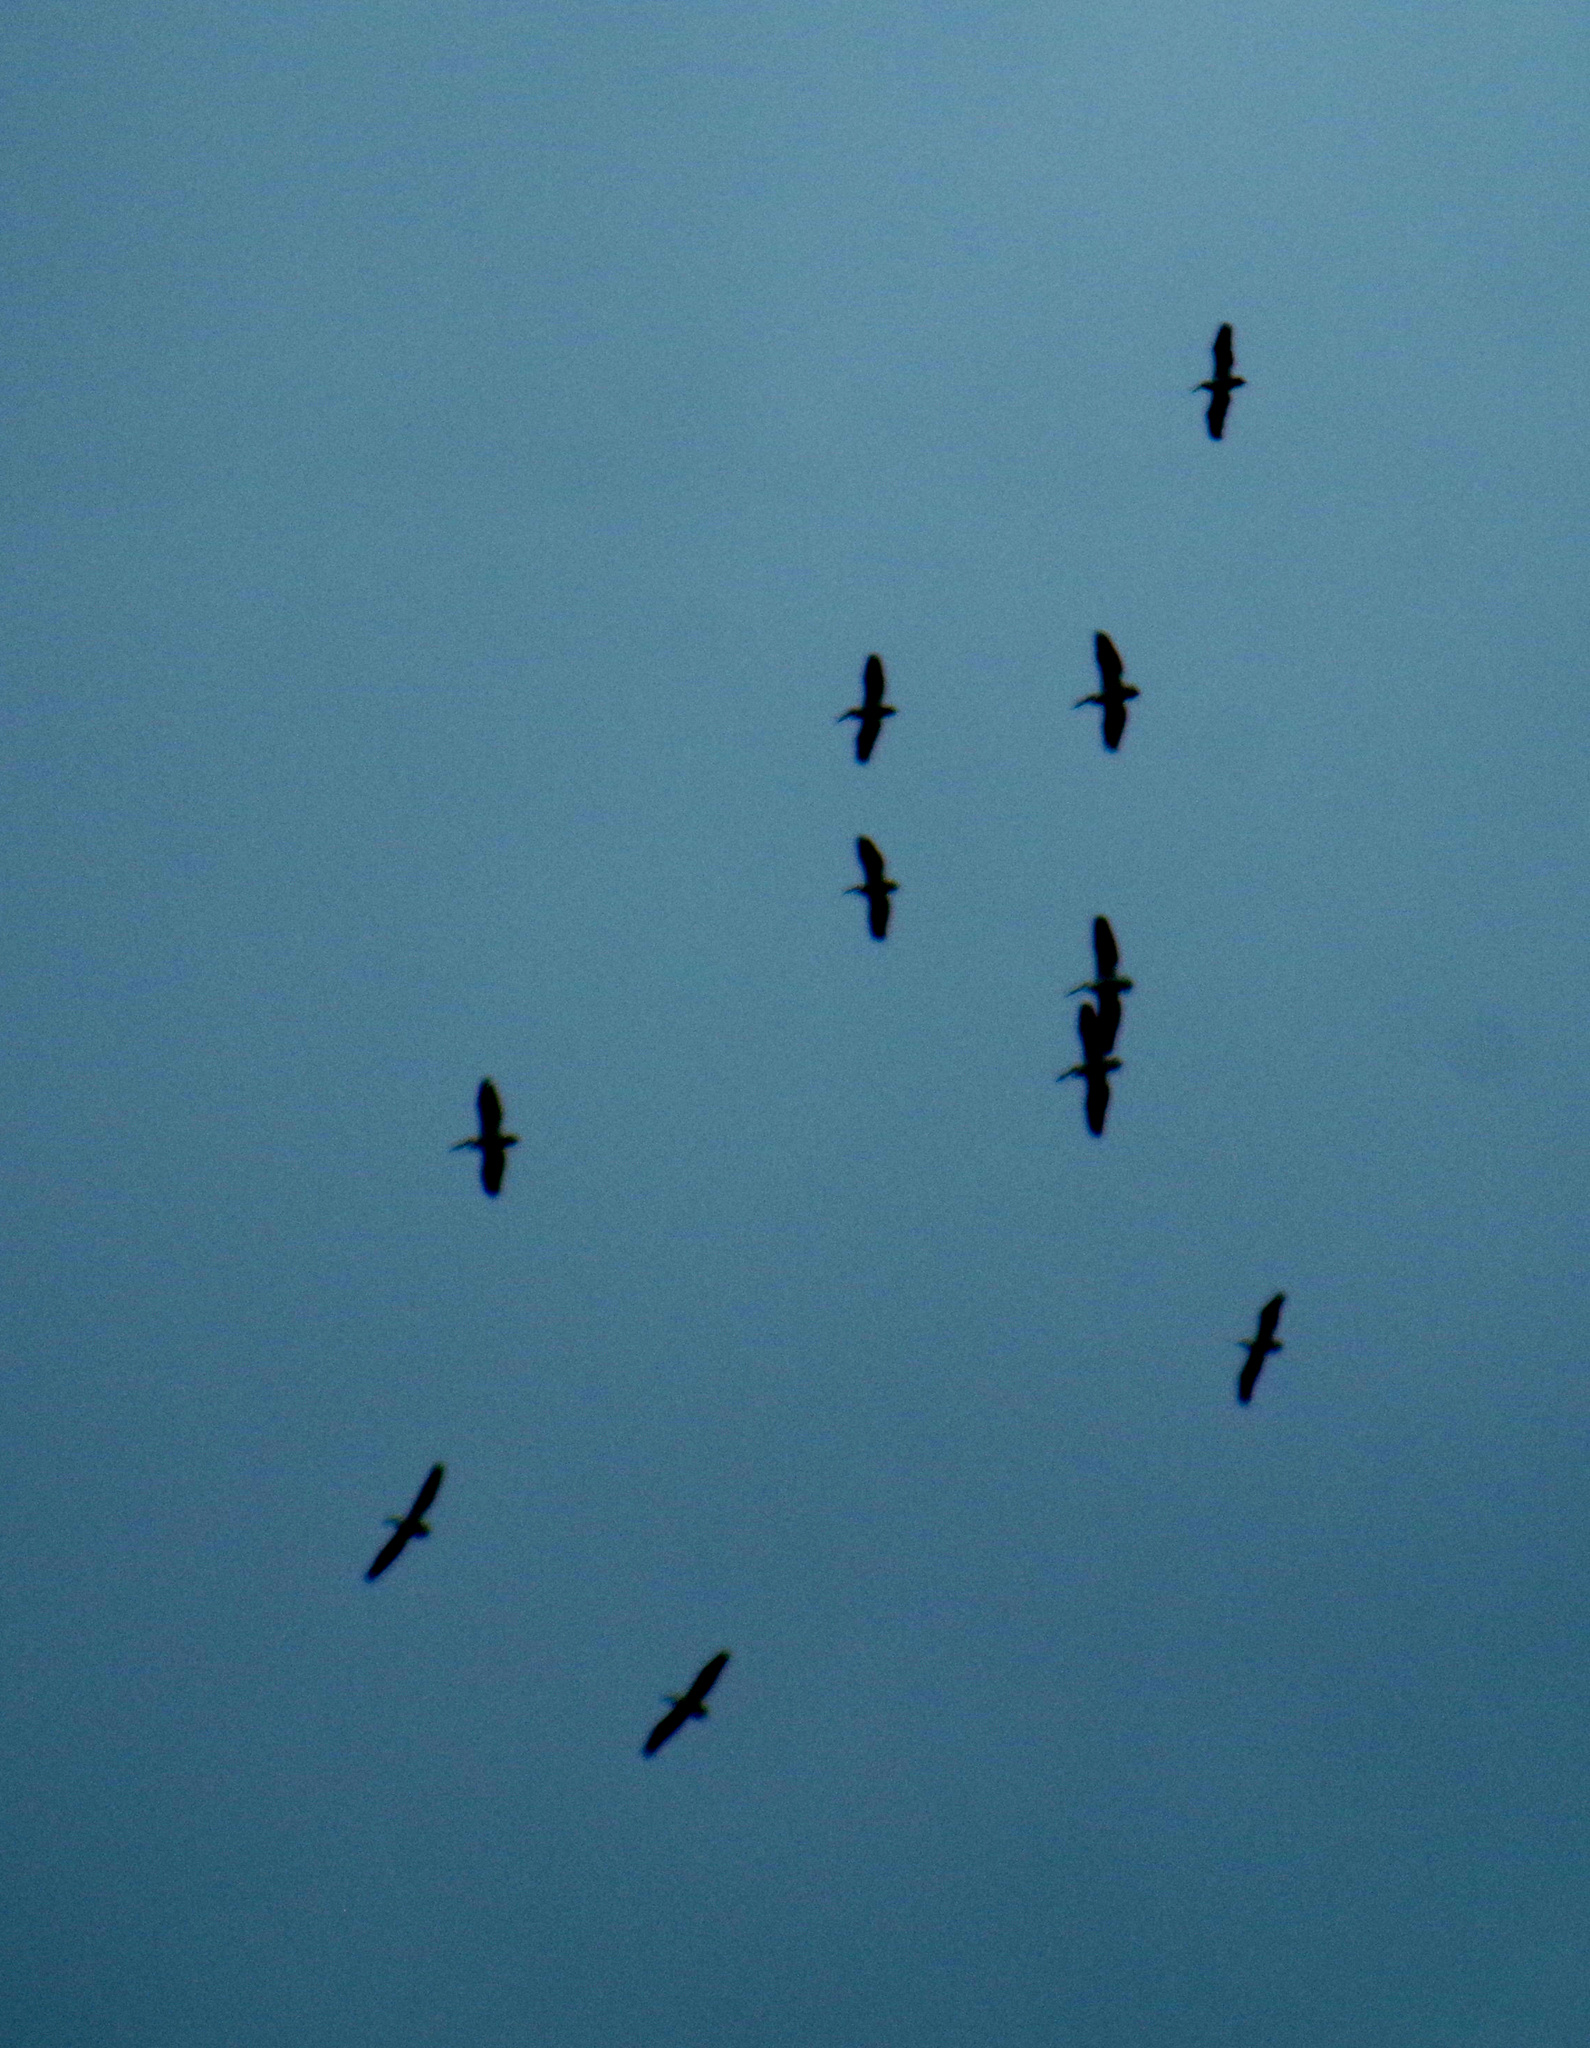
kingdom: Animalia
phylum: Chordata
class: Aves
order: Pelecaniformes
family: Pelecanidae
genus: Pelecanus
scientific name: Pelecanus erythrorhynchos
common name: American white pelican
